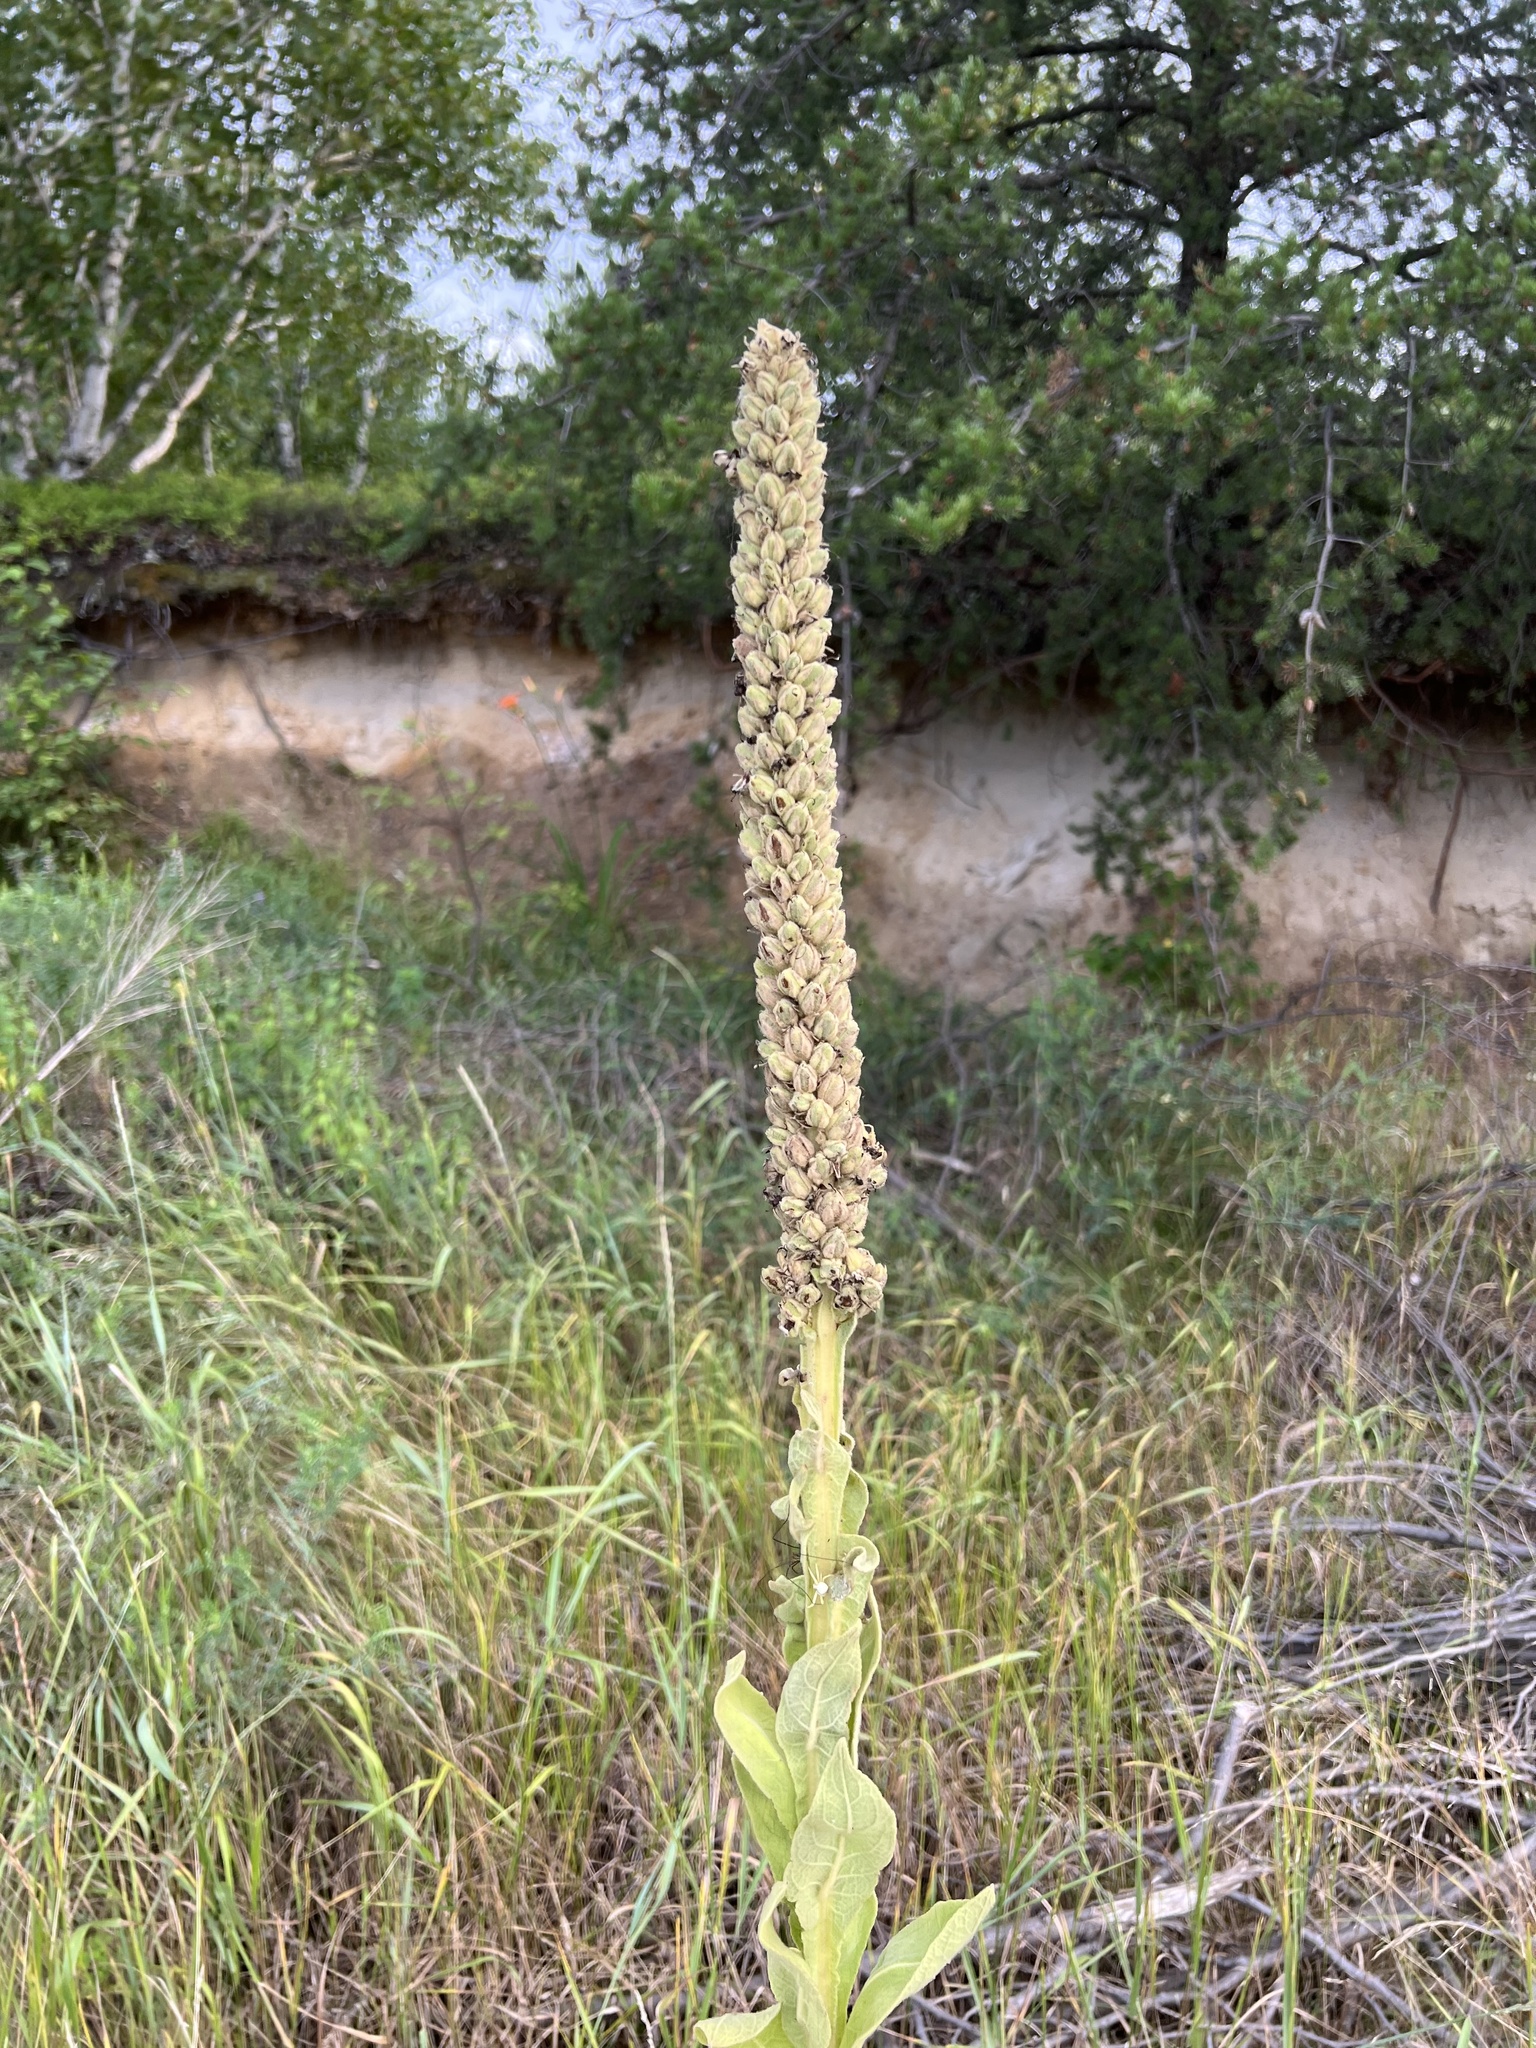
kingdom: Plantae
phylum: Tracheophyta
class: Magnoliopsida
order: Lamiales
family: Scrophulariaceae
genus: Verbascum
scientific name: Verbascum thapsus
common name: Common mullein
